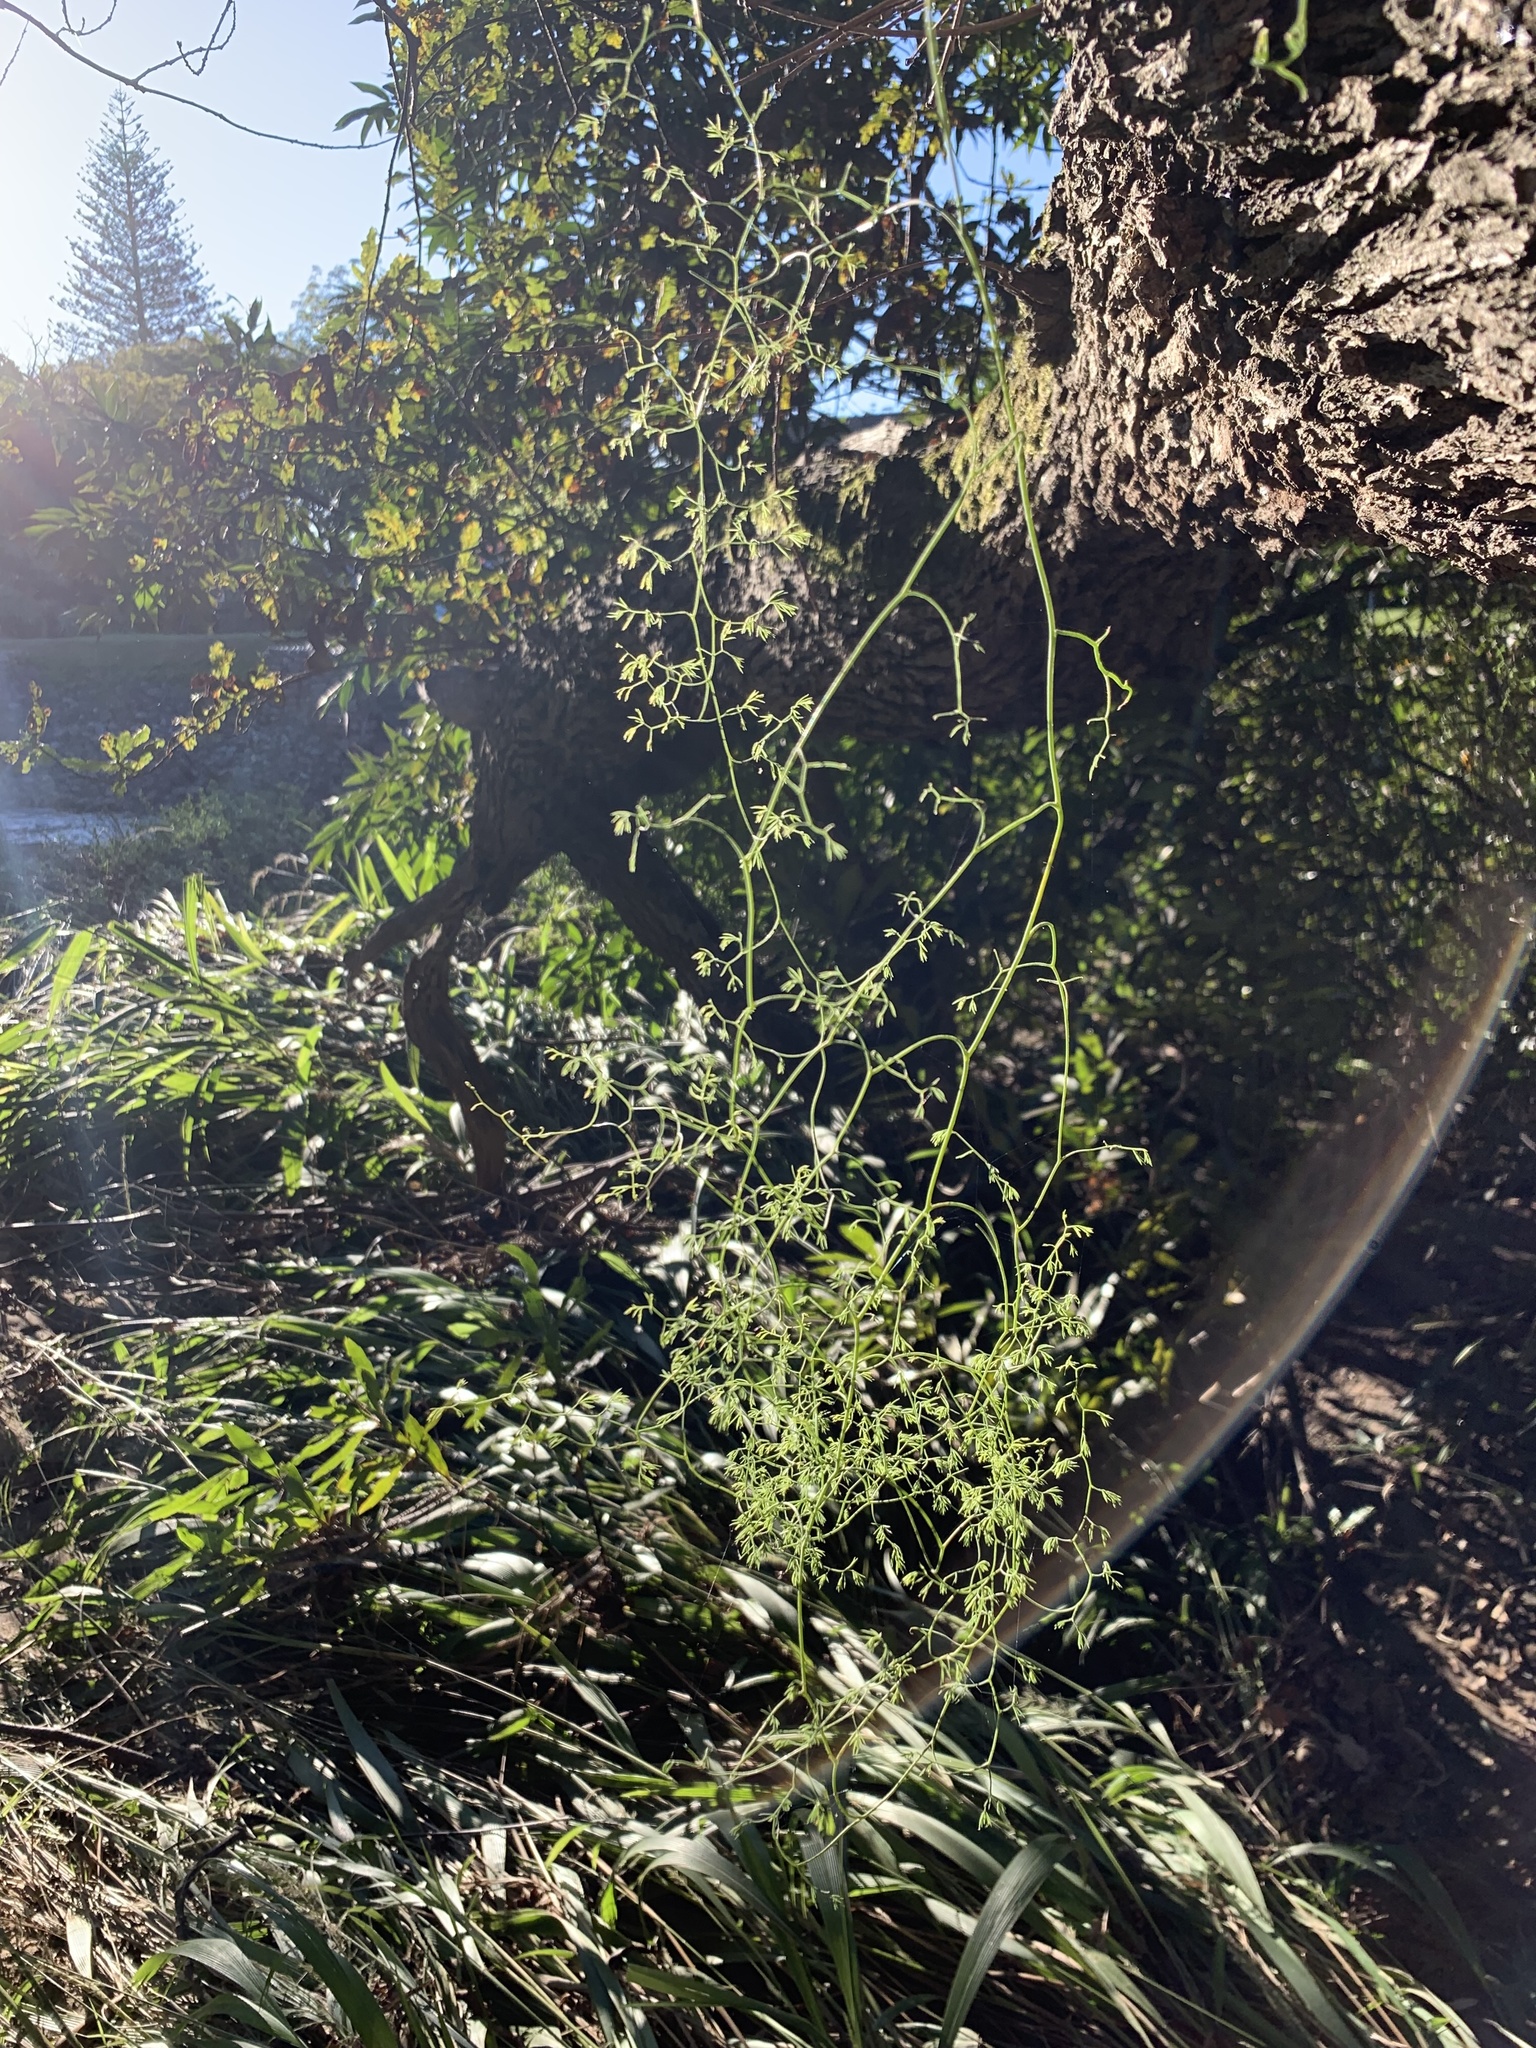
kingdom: Plantae
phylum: Tracheophyta
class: Liliopsida
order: Asparagales
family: Asparagaceae
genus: Asparagus
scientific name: Asparagus declinatus
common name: Bridal-creeper
